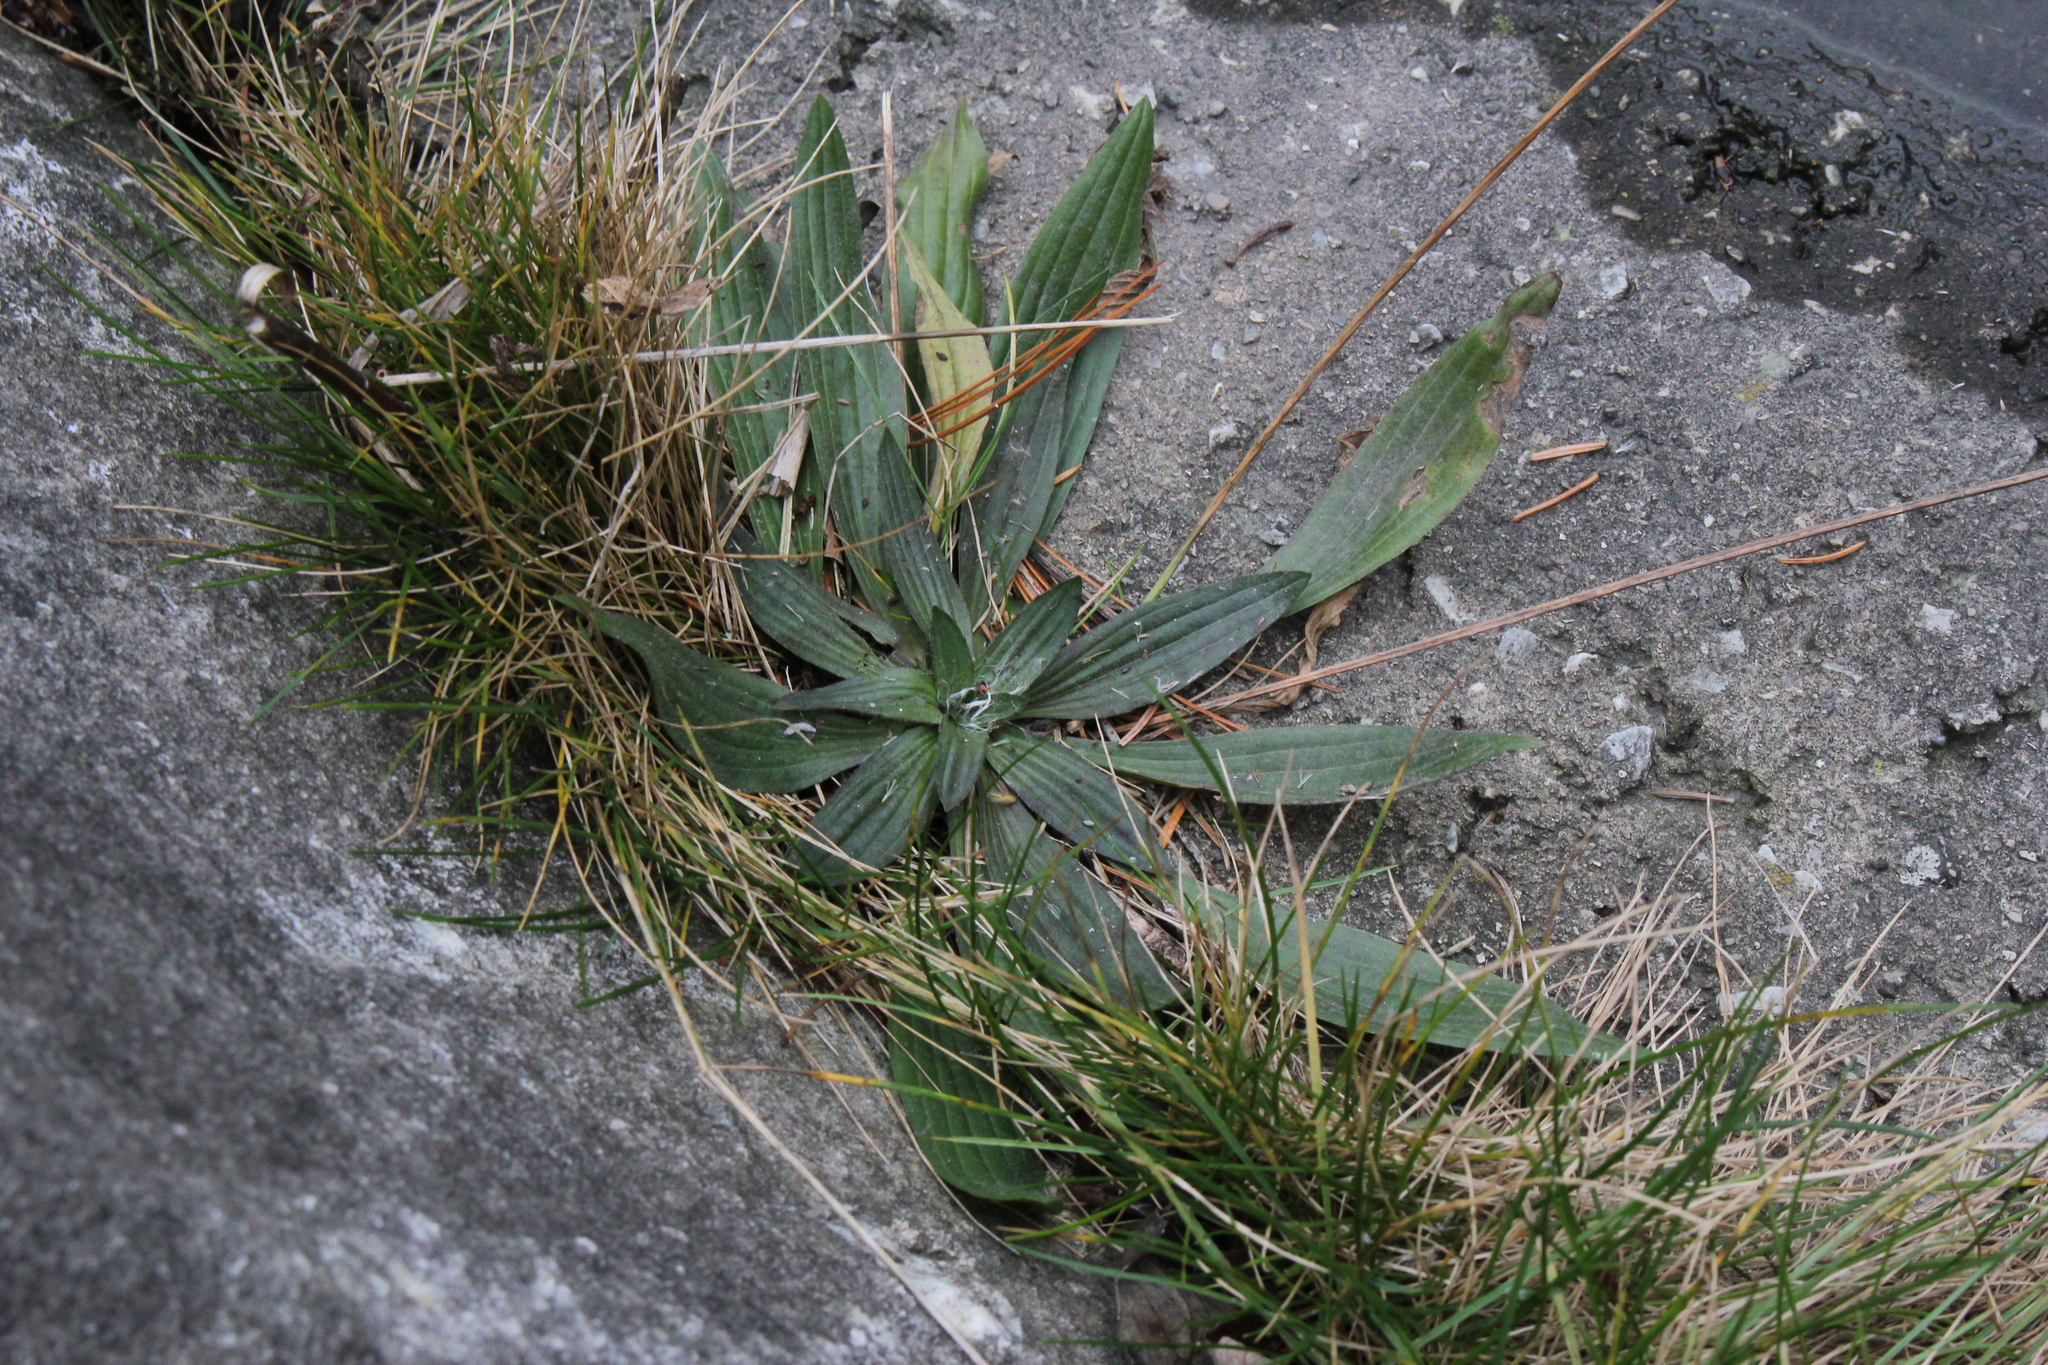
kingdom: Plantae
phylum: Tracheophyta
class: Magnoliopsida
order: Lamiales
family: Plantaginaceae
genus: Plantago
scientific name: Plantago lanceolata
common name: Ribwort plantain
